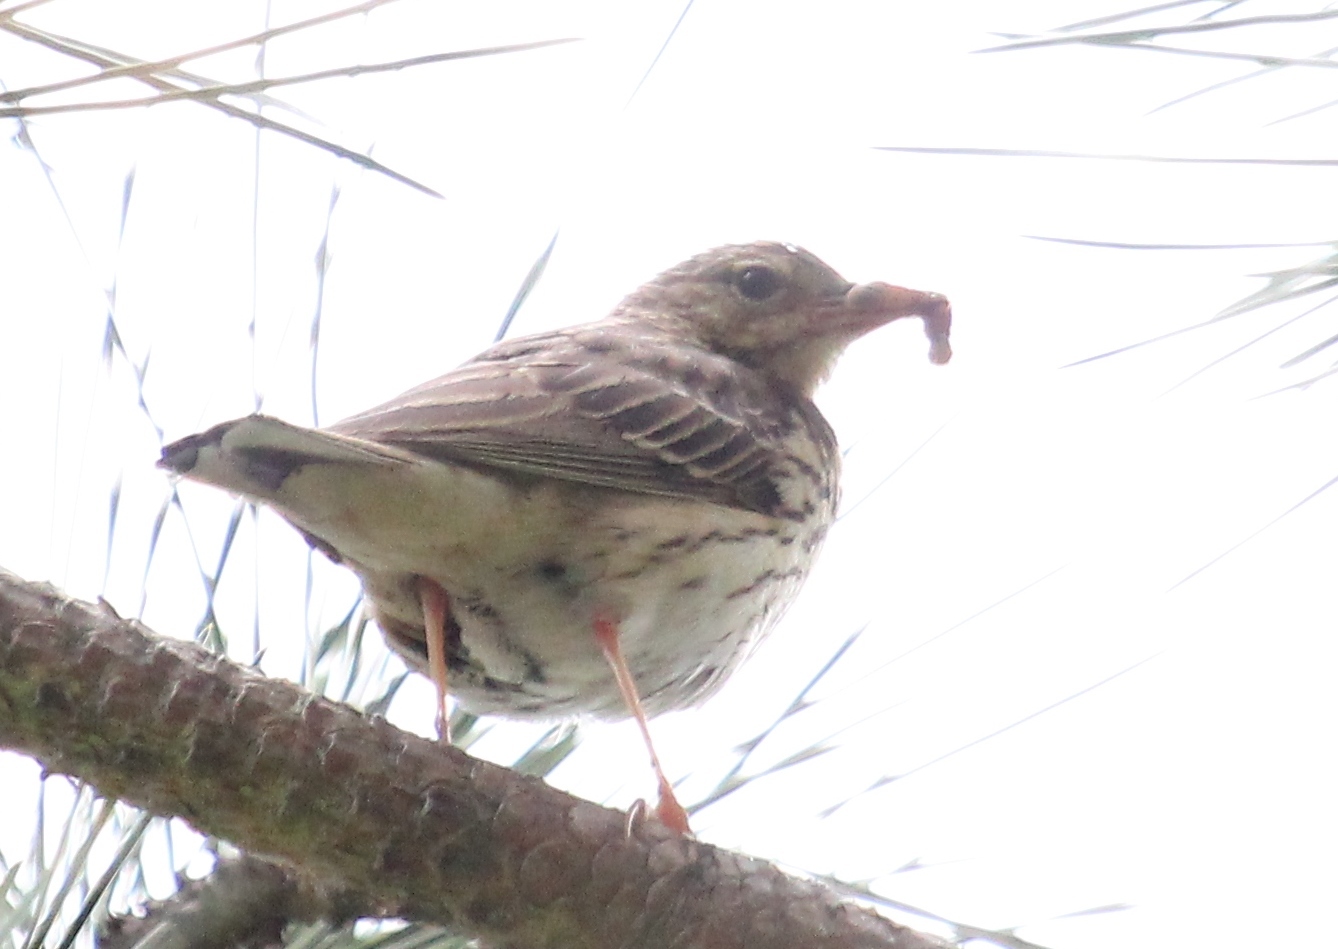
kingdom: Animalia
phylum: Chordata
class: Aves
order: Passeriformes
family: Motacillidae
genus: Anthus
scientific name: Anthus trivialis
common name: Tree pipit
